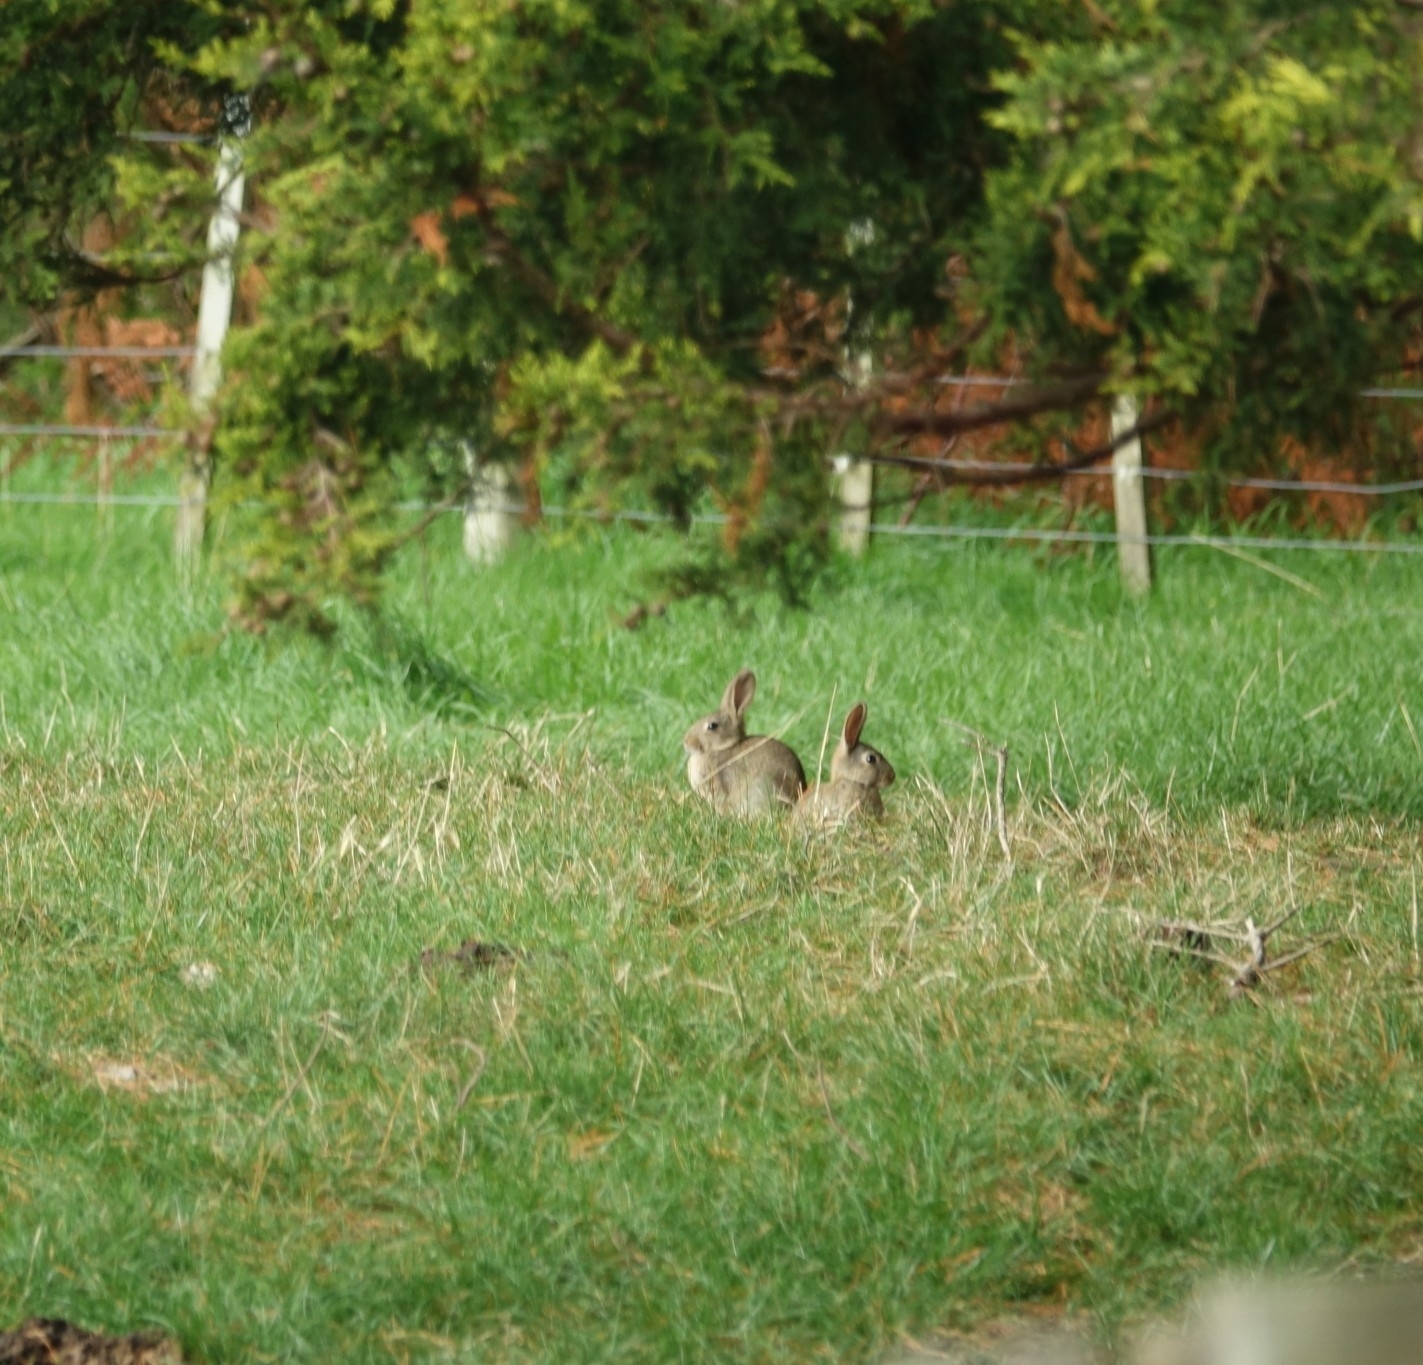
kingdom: Animalia
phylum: Chordata
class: Mammalia
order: Lagomorpha
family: Leporidae
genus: Oryctolagus
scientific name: Oryctolagus cuniculus
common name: European rabbit
